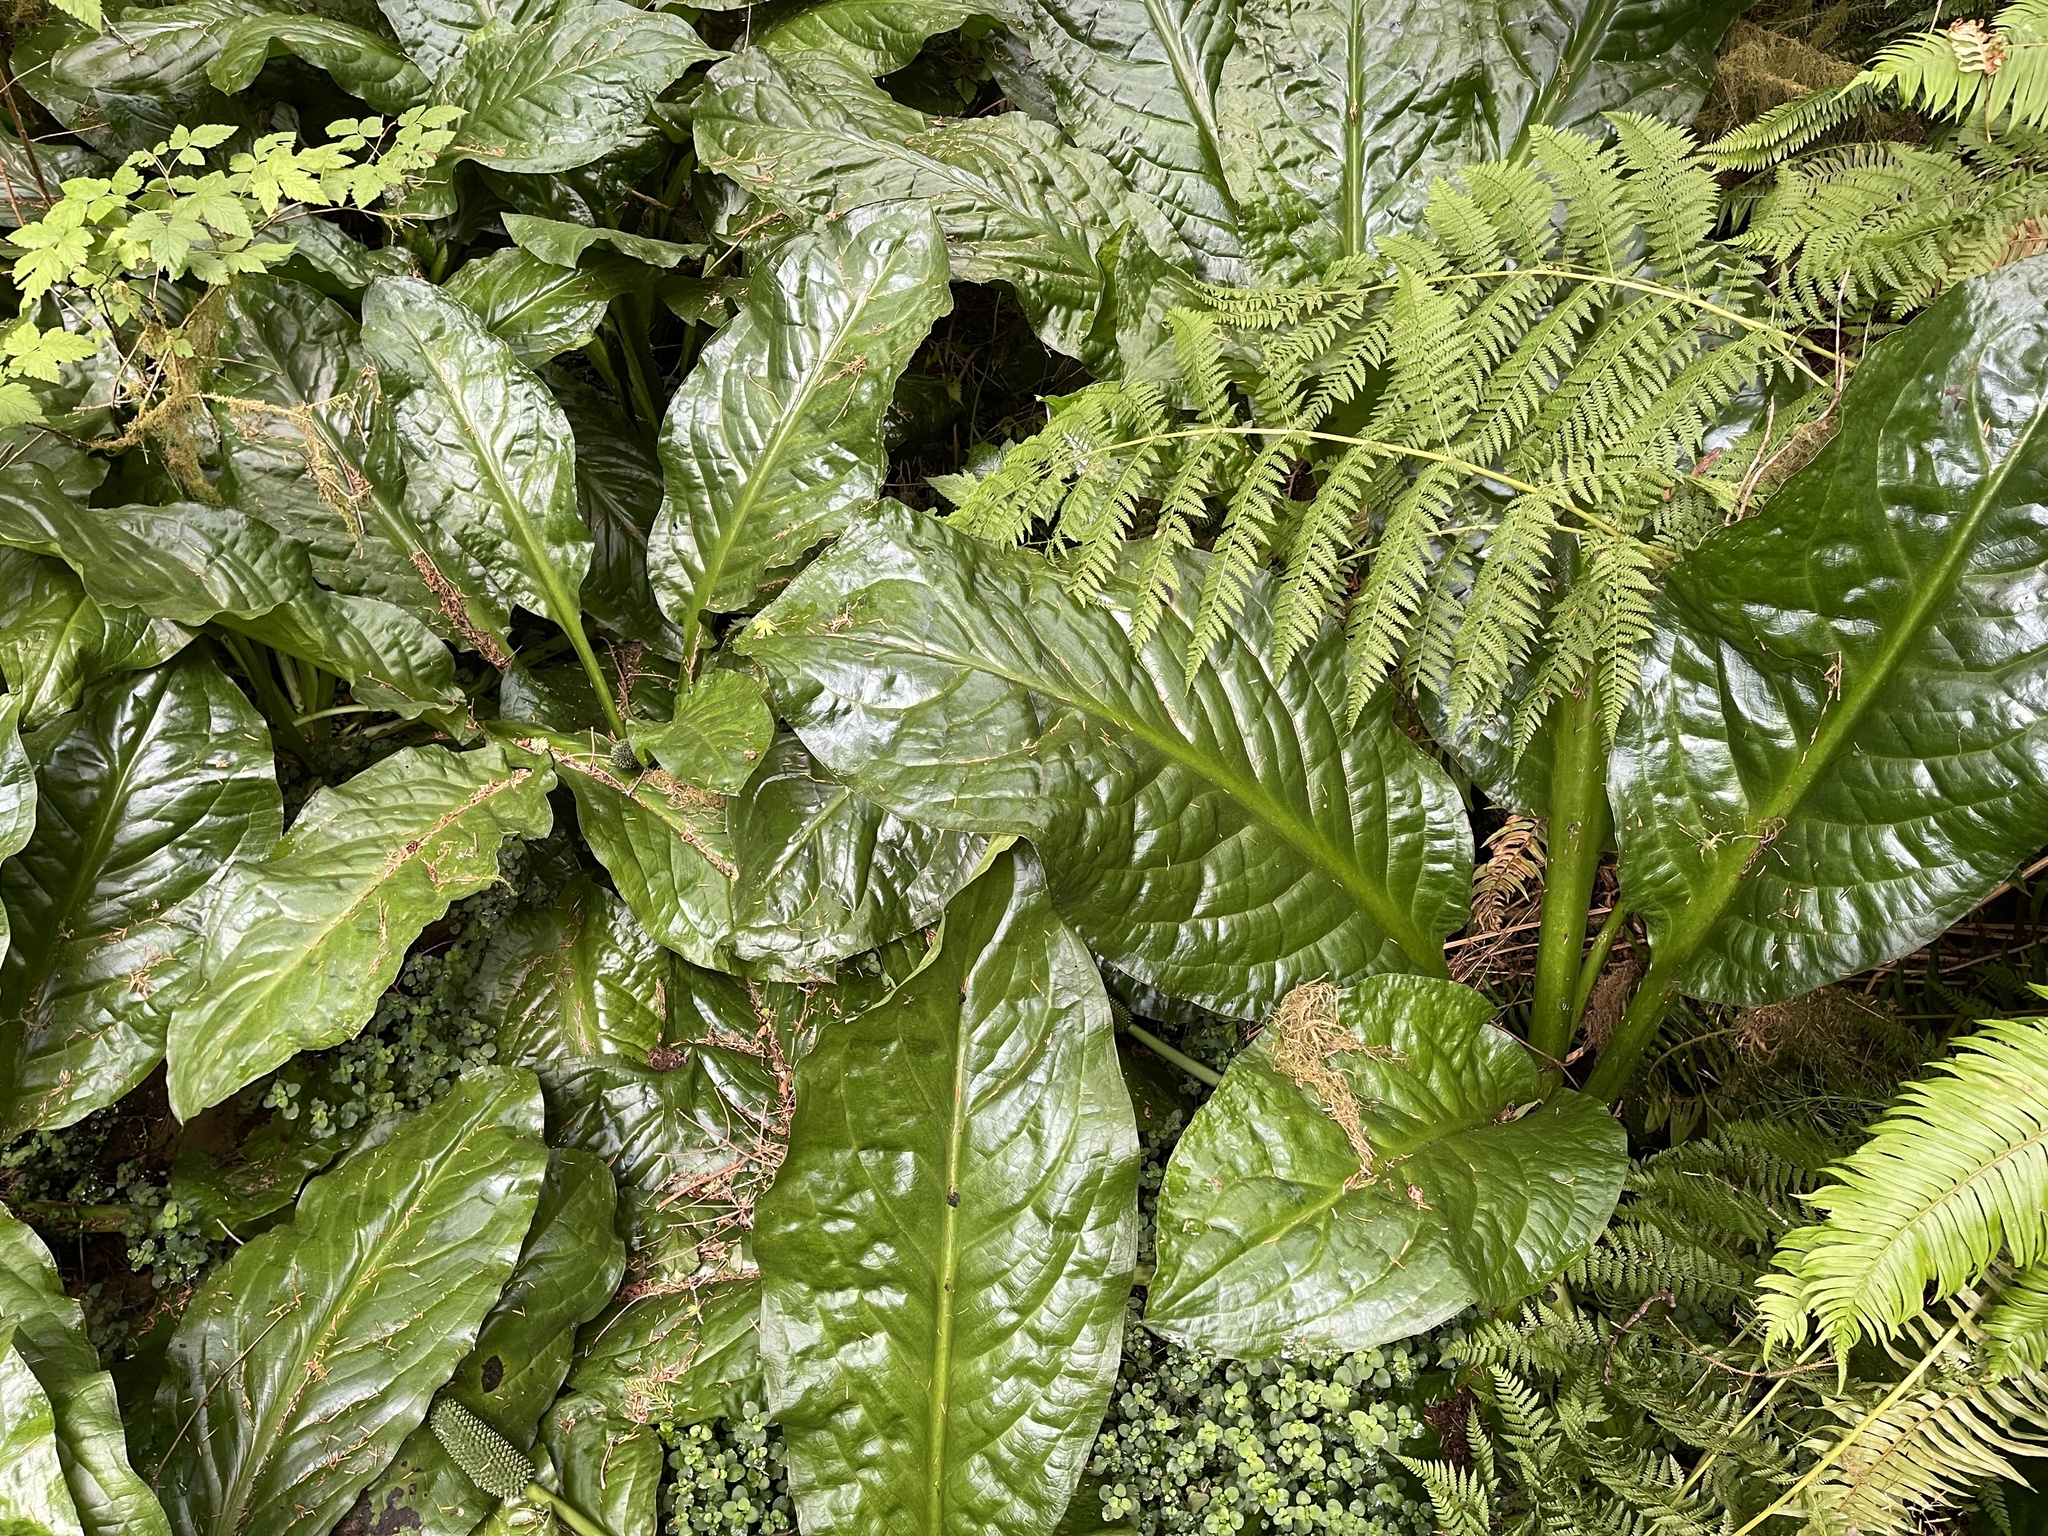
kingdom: Plantae
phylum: Tracheophyta
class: Liliopsida
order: Alismatales
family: Araceae
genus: Lysichiton
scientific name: Lysichiton americanus
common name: American skunk cabbage
